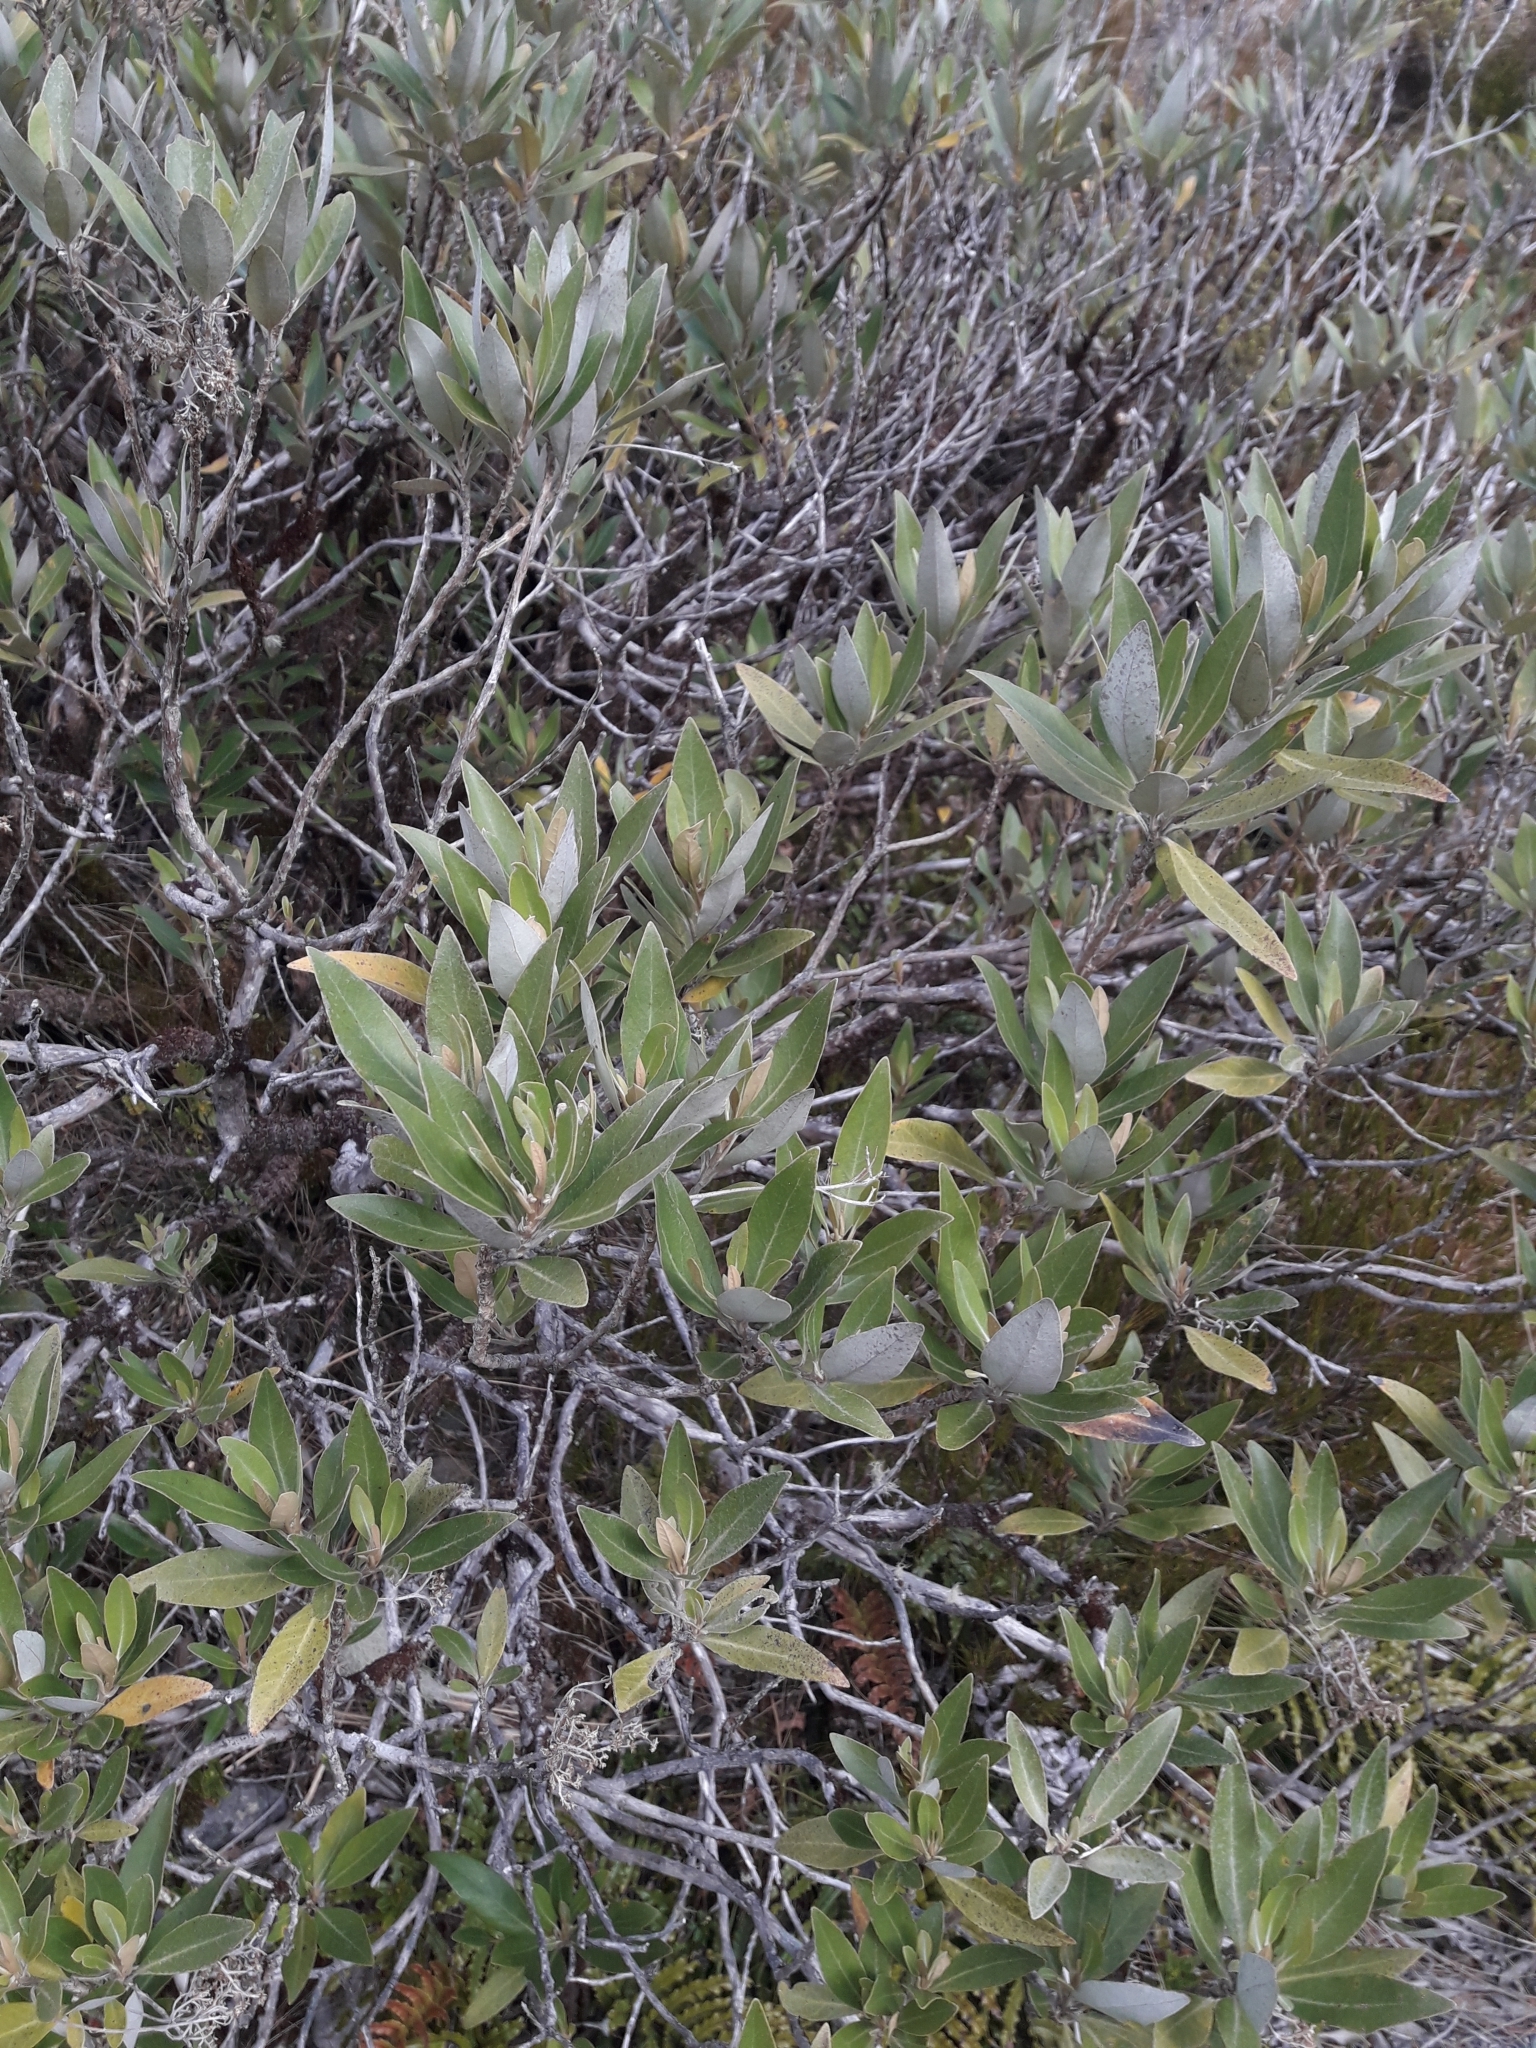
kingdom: Plantae
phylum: Tracheophyta
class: Magnoliopsida
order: Asterales
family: Asteraceae
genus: Olearia
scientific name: Olearia avicenniifolia
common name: Mangrove-leaf daisybush
